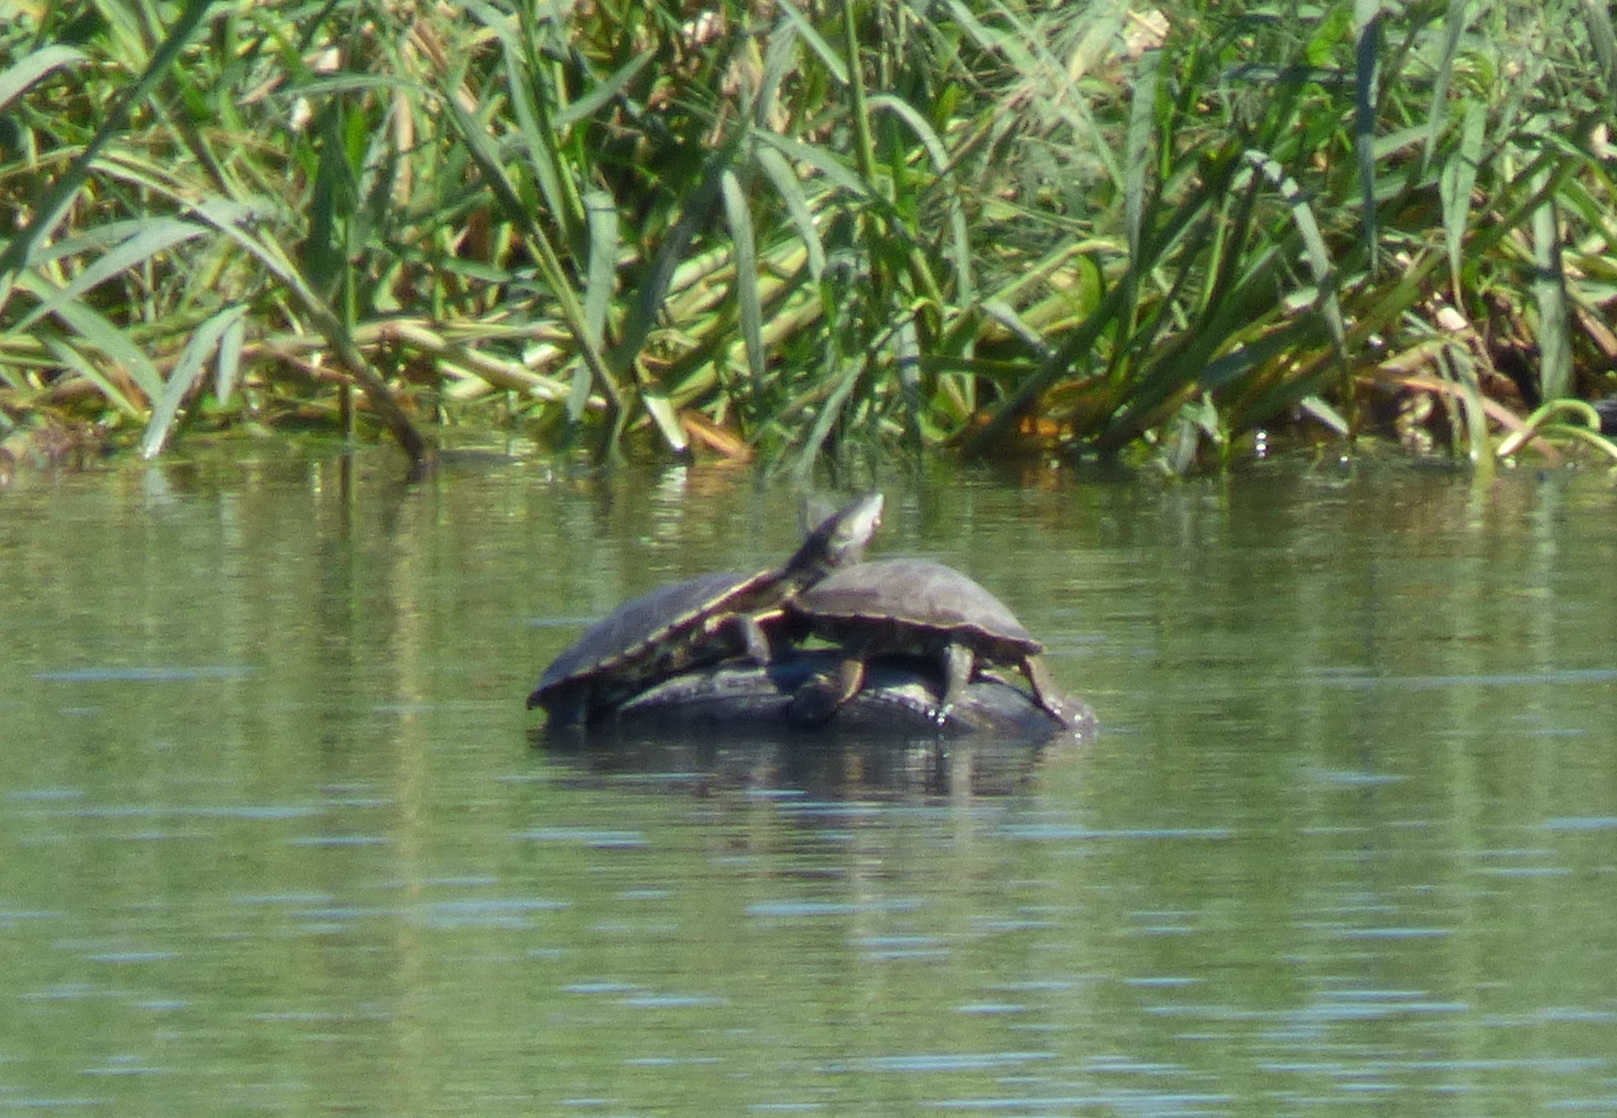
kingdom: Animalia
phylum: Chordata
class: Testudines
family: Chelidae
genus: Phrynops
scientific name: Phrynops hilarii
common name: Side-necked turtle of saint hillaire
